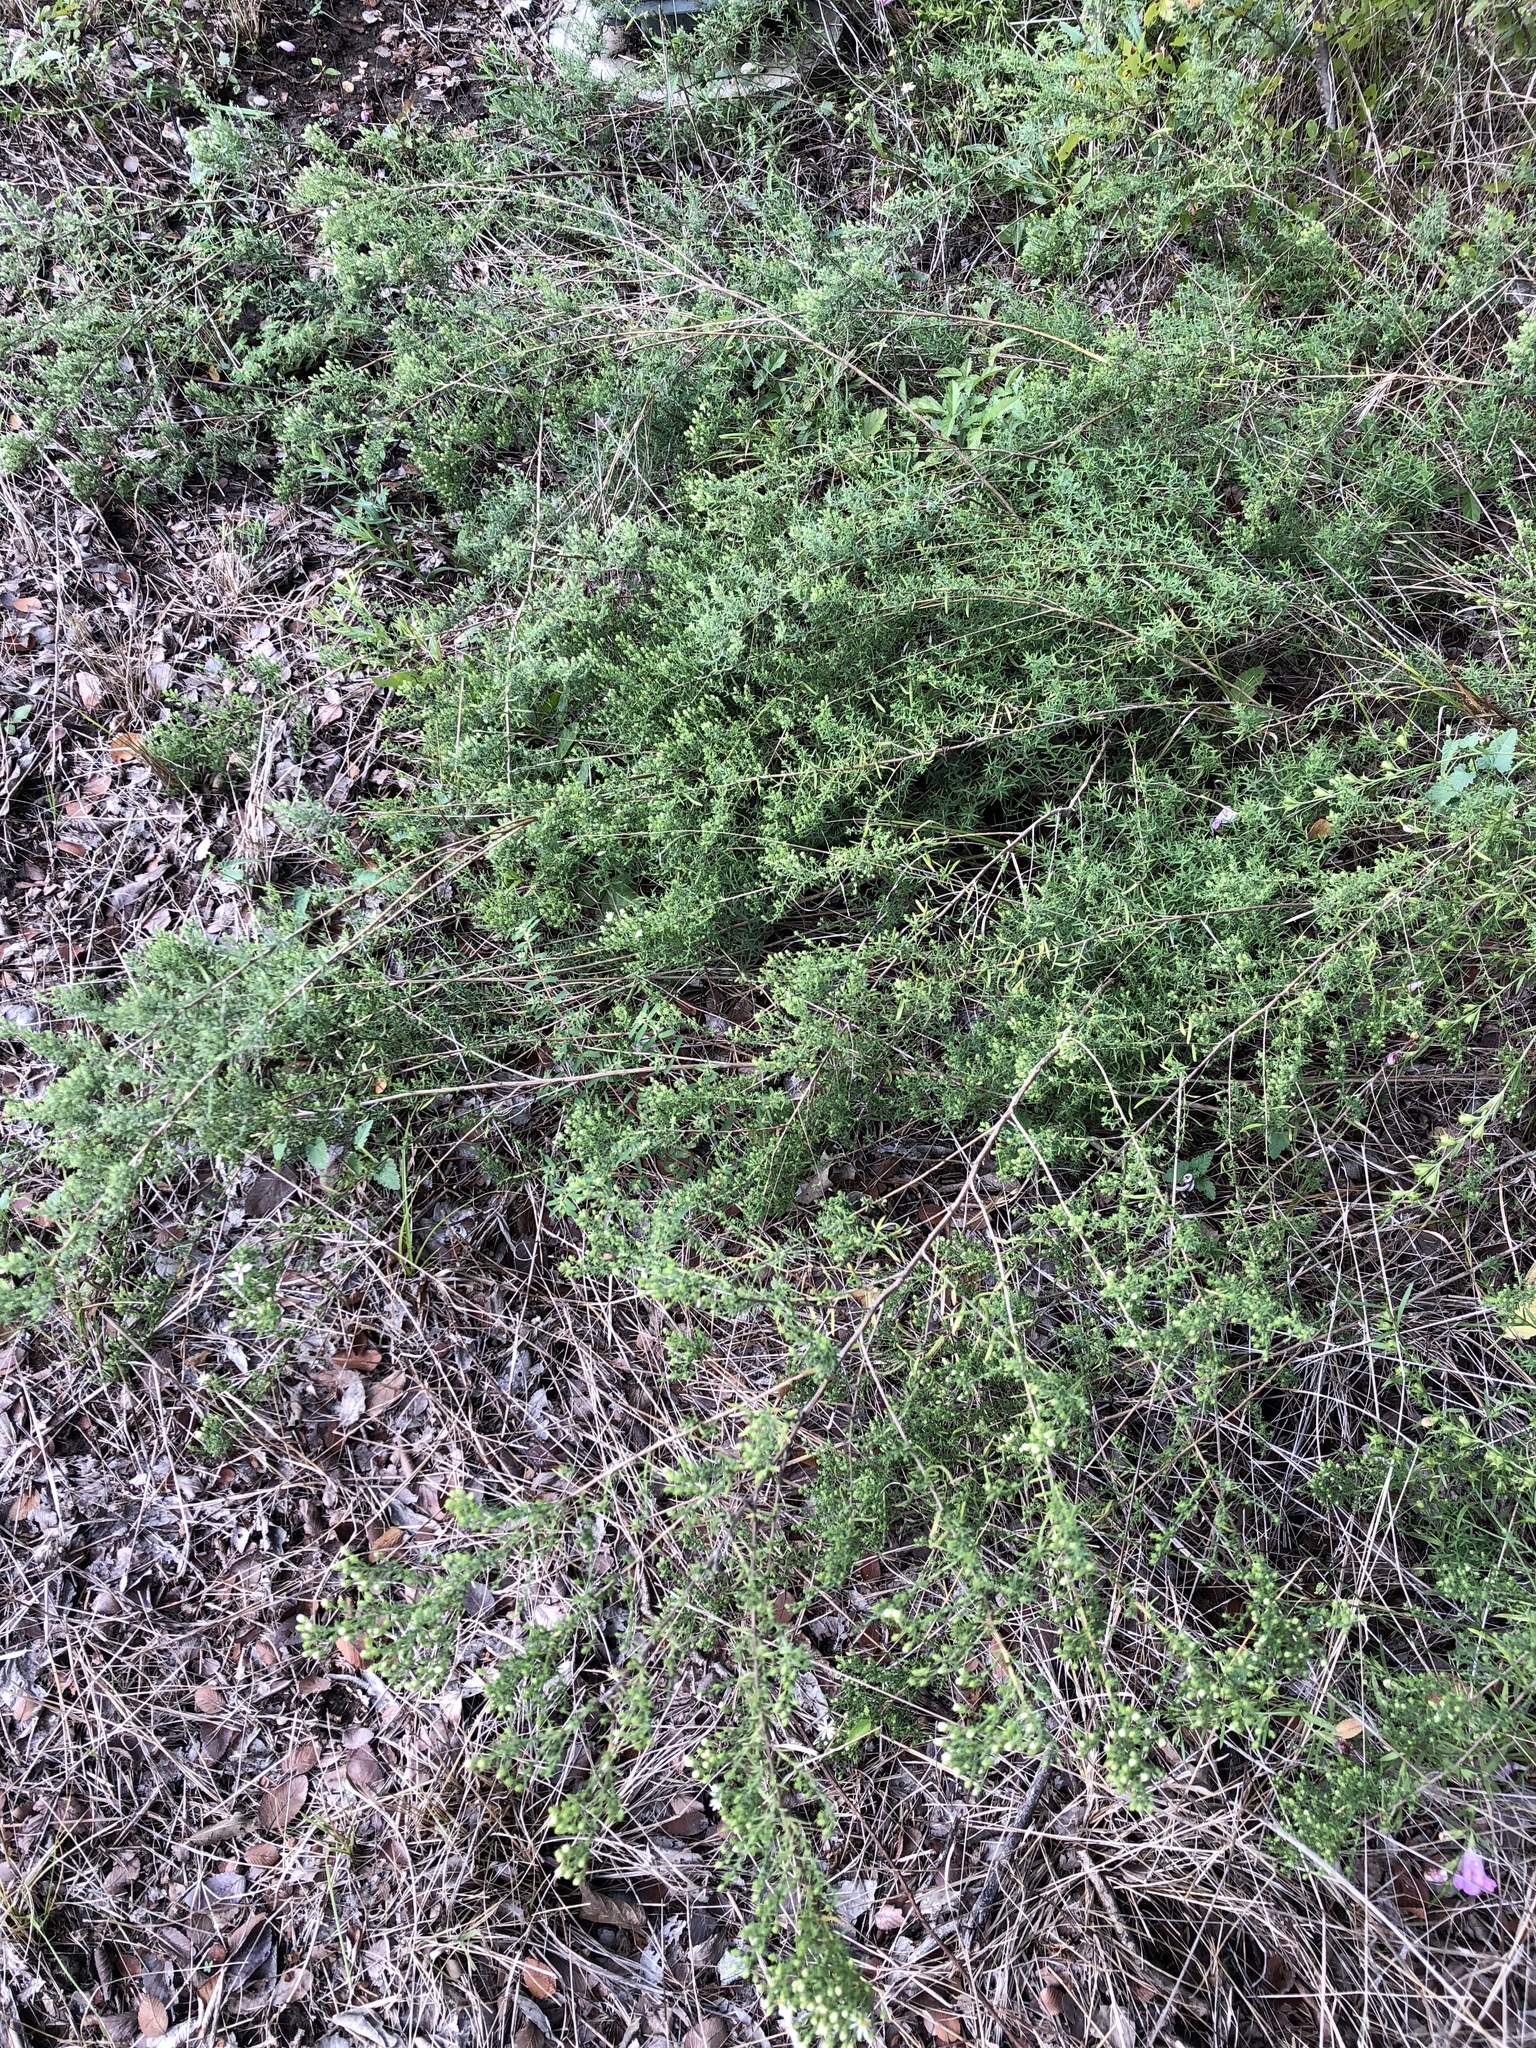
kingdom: Plantae
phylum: Tracheophyta
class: Magnoliopsida
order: Asterales
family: Asteraceae
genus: Symphyotrichum
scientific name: Symphyotrichum ericoides
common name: Heath aster
